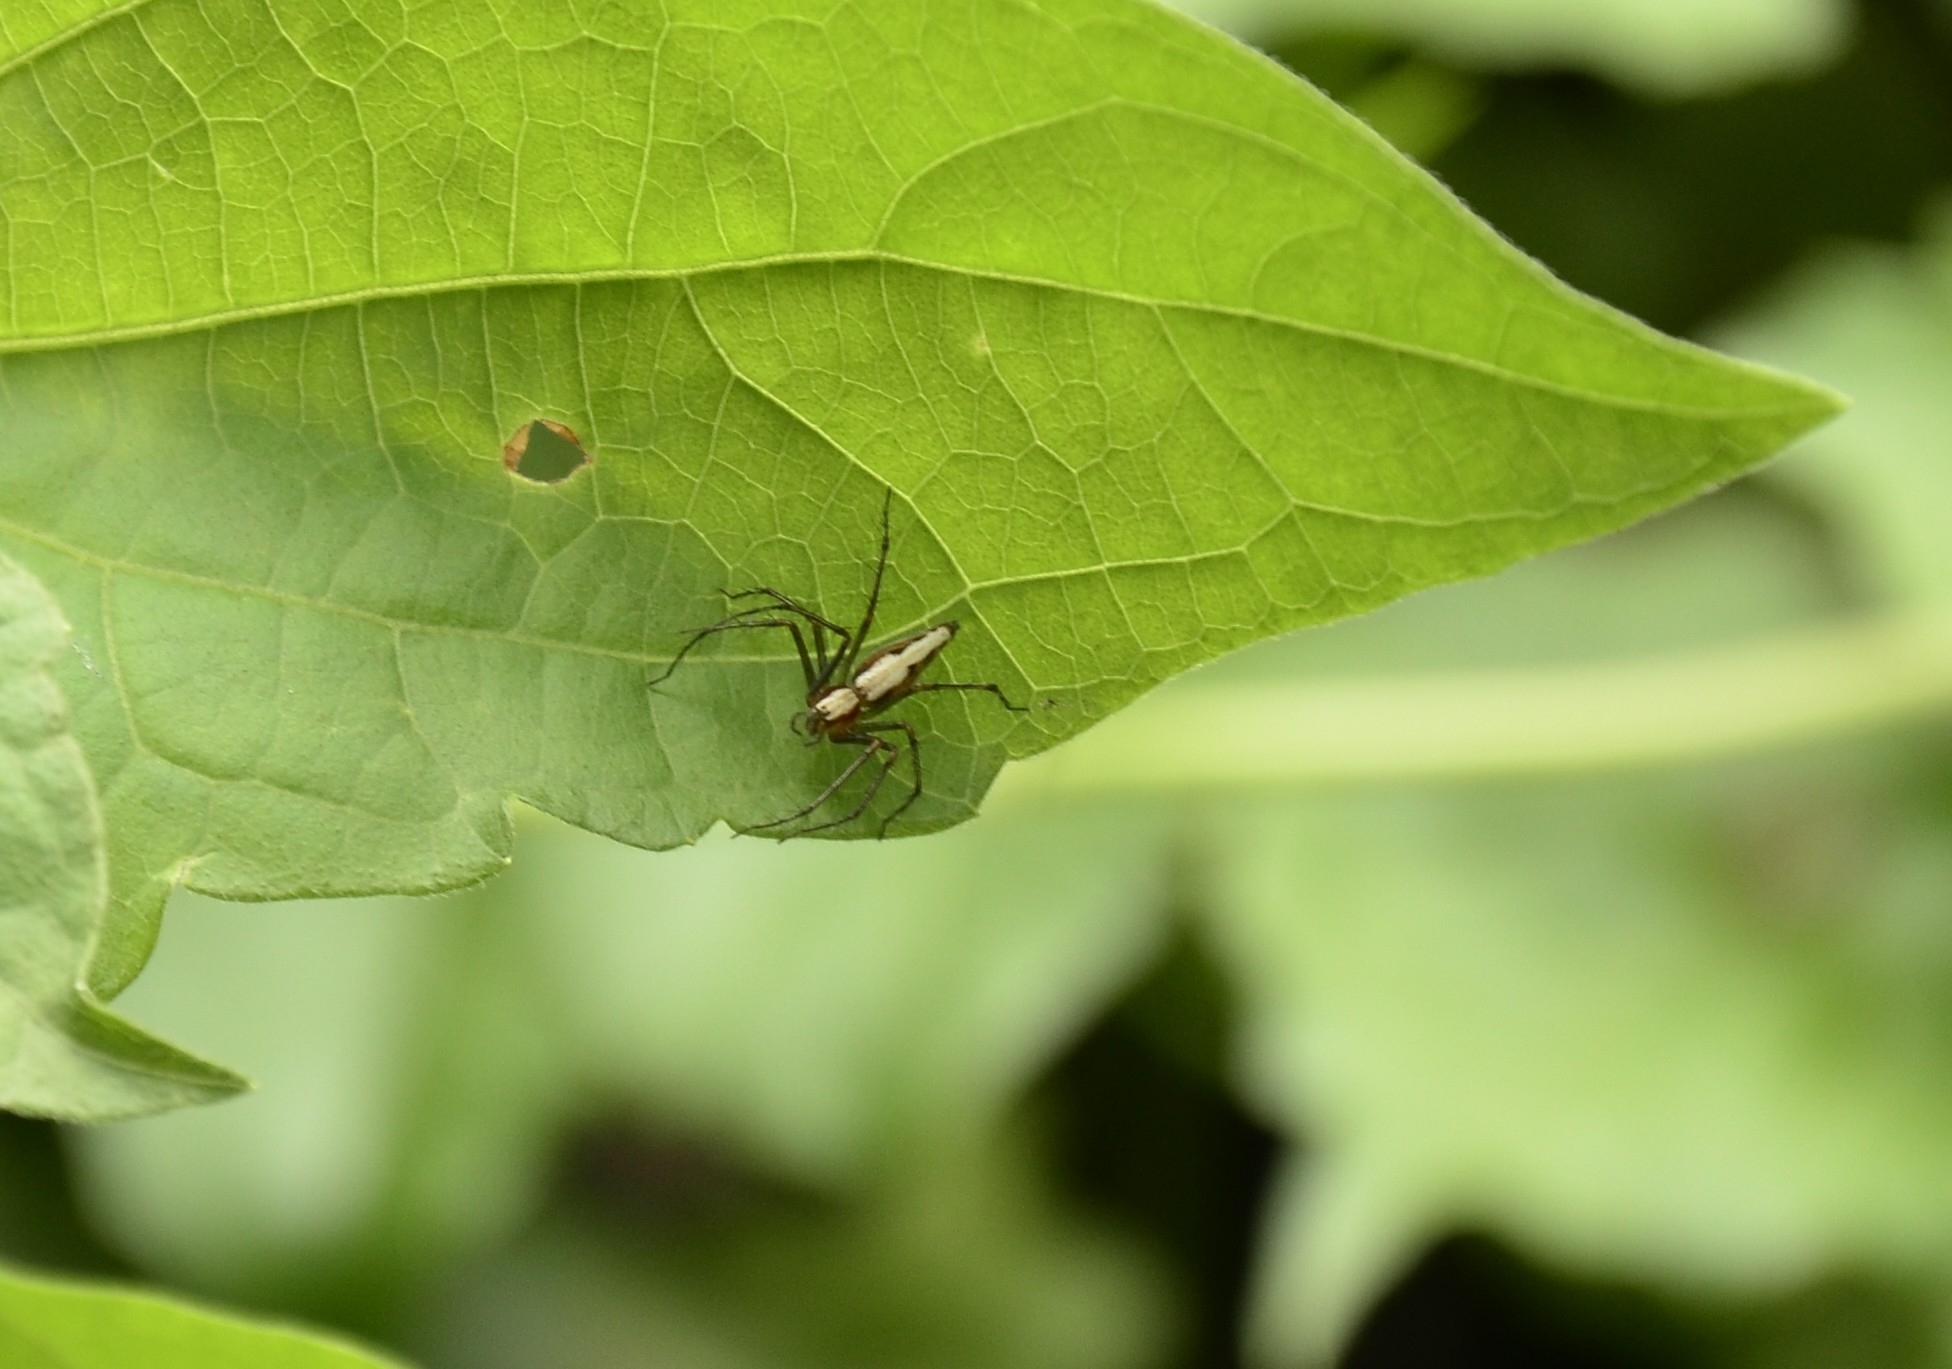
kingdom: Animalia
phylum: Arthropoda
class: Arachnida
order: Araneae
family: Oxyopidae
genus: Oxyopes
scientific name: Oxyopes shweta
